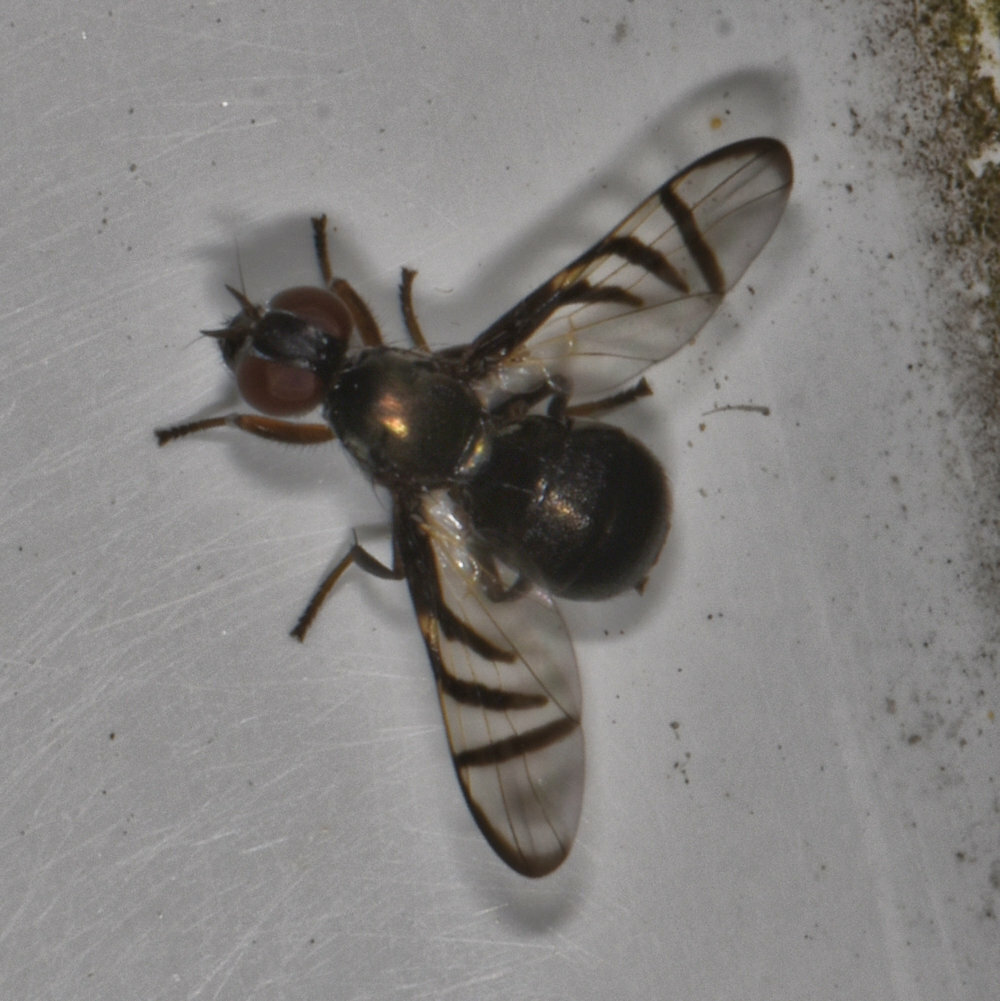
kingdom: Animalia
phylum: Arthropoda
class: Insecta
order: Diptera
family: Platystomatidae
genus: Rivellia
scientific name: Rivellia variabilis
